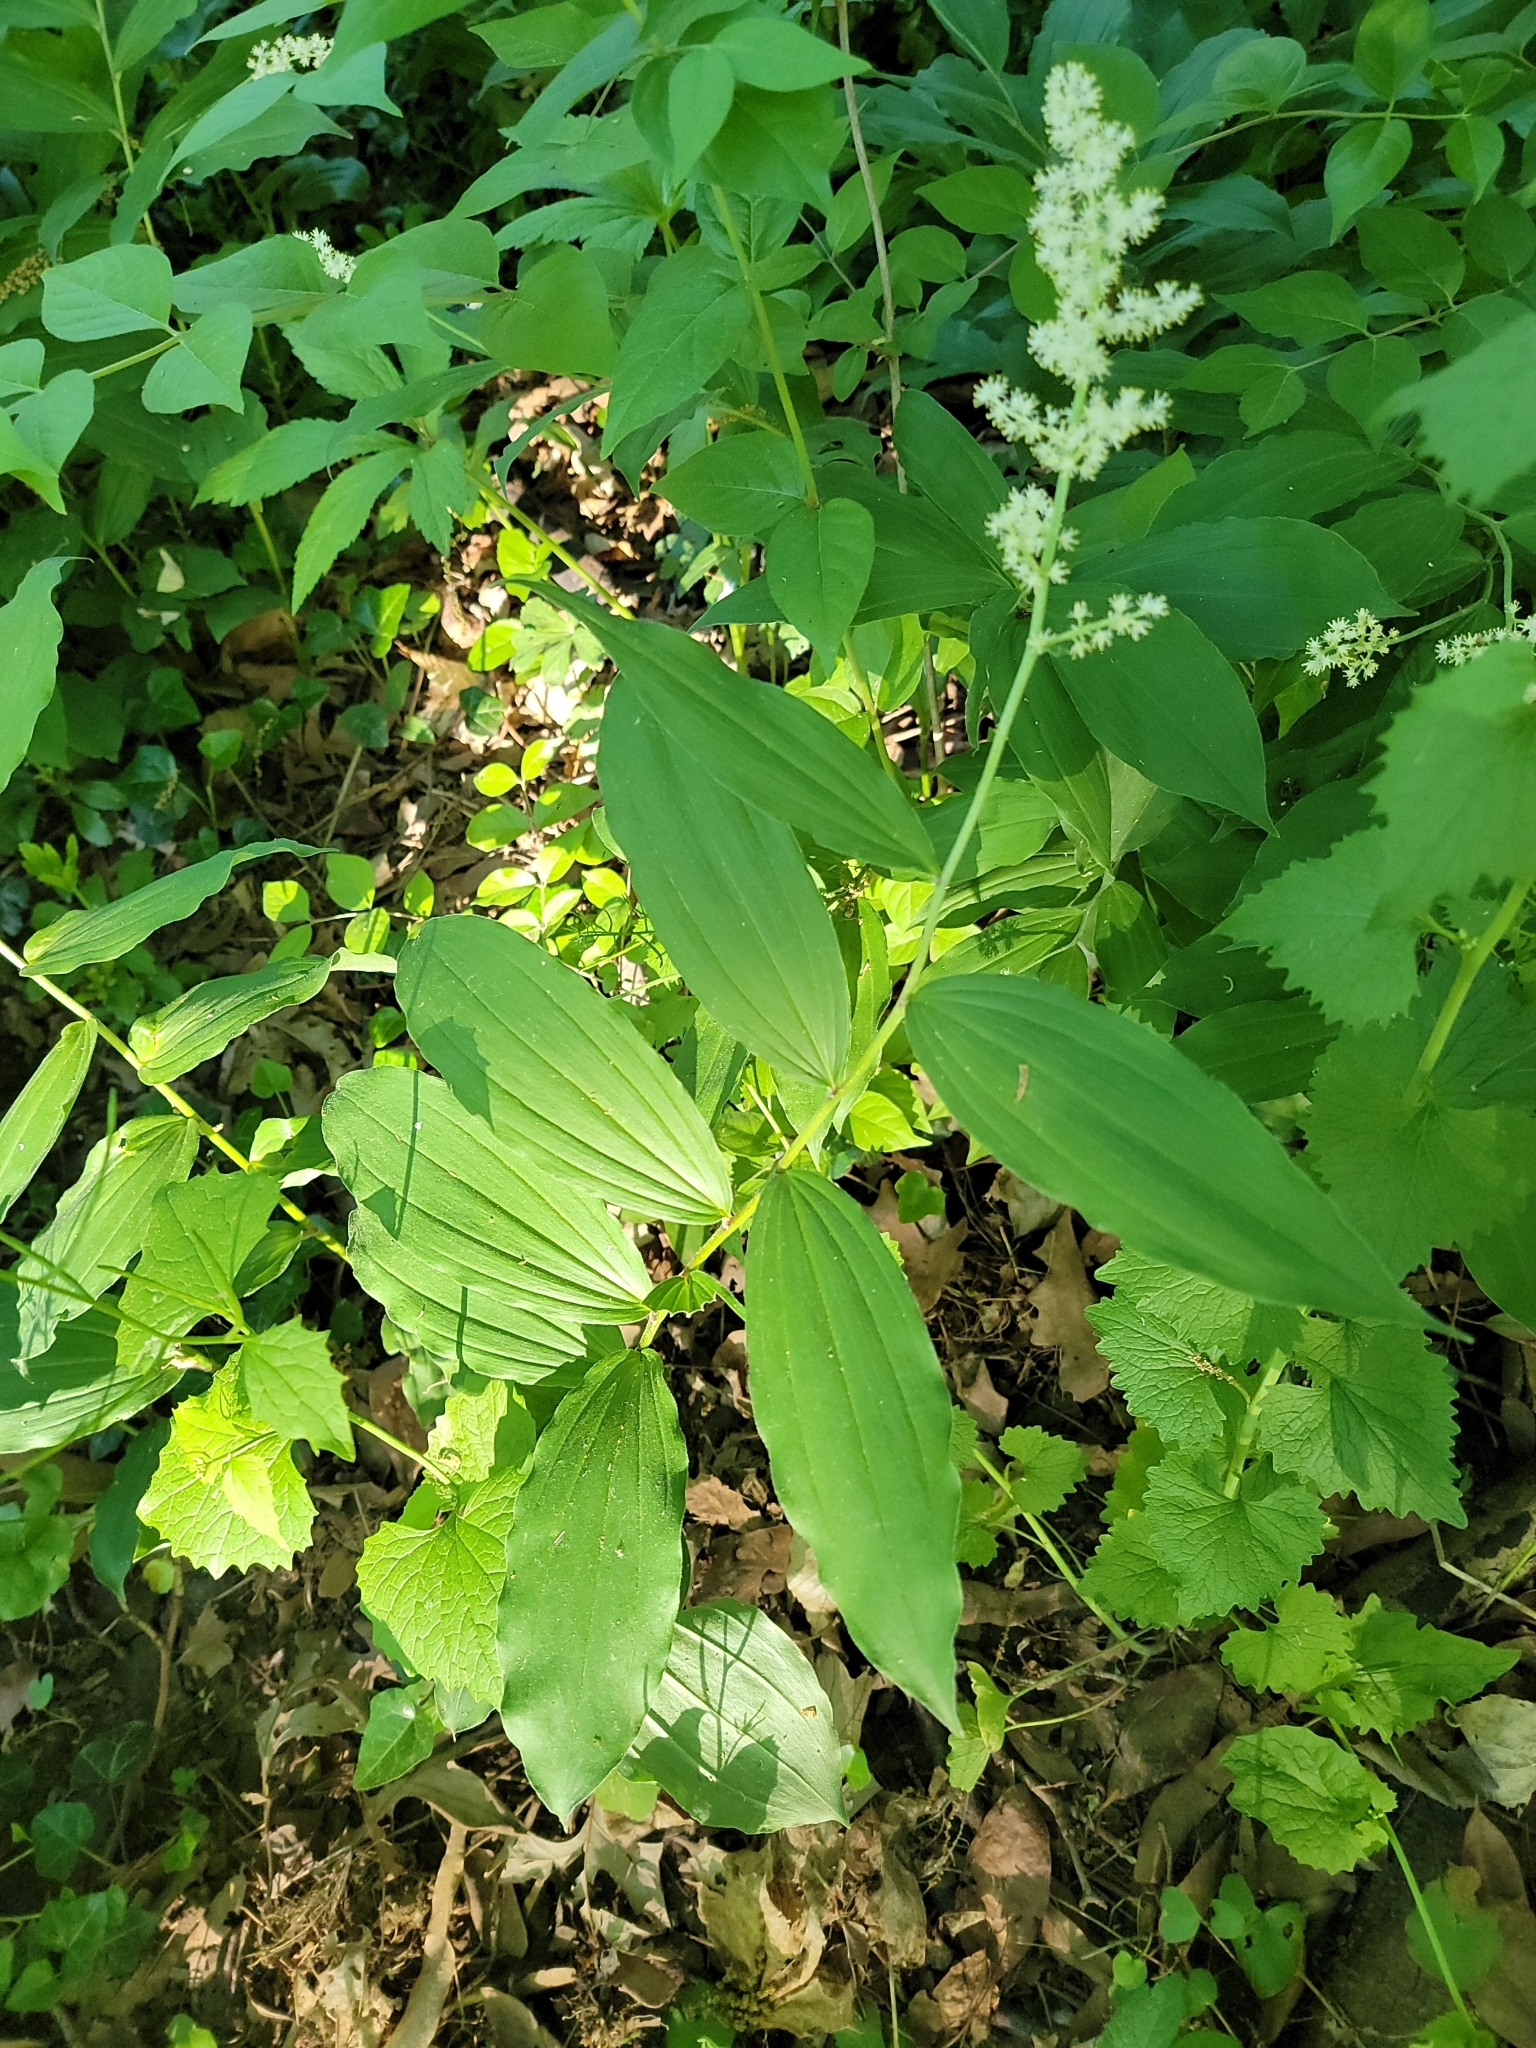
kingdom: Plantae
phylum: Tracheophyta
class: Liliopsida
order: Asparagales
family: Asparagaceae
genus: Maianthemum
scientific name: Maianthemum racemosum
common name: False spikenard
